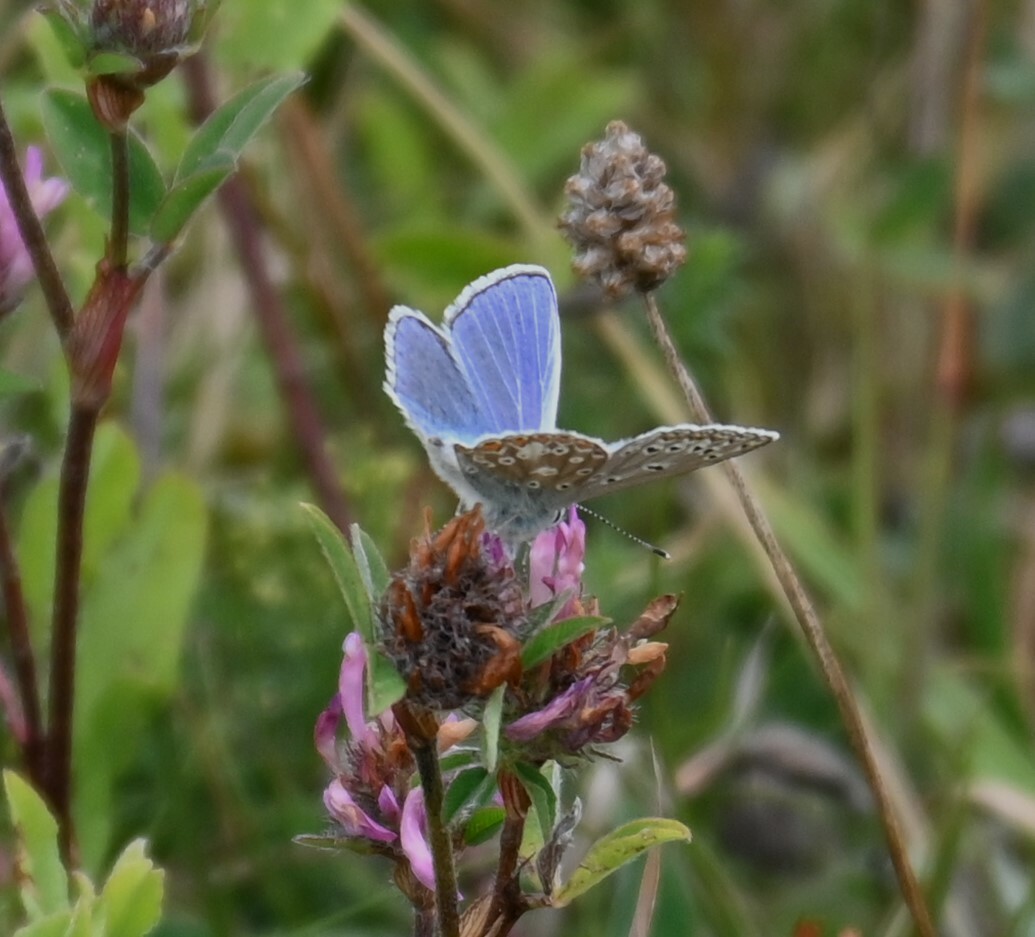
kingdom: Animalia
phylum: Arthropoda
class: Insecta
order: Lepidoptera
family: Lycaenidae
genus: Polyommatus
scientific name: Polyommatus icarus
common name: Common blue
